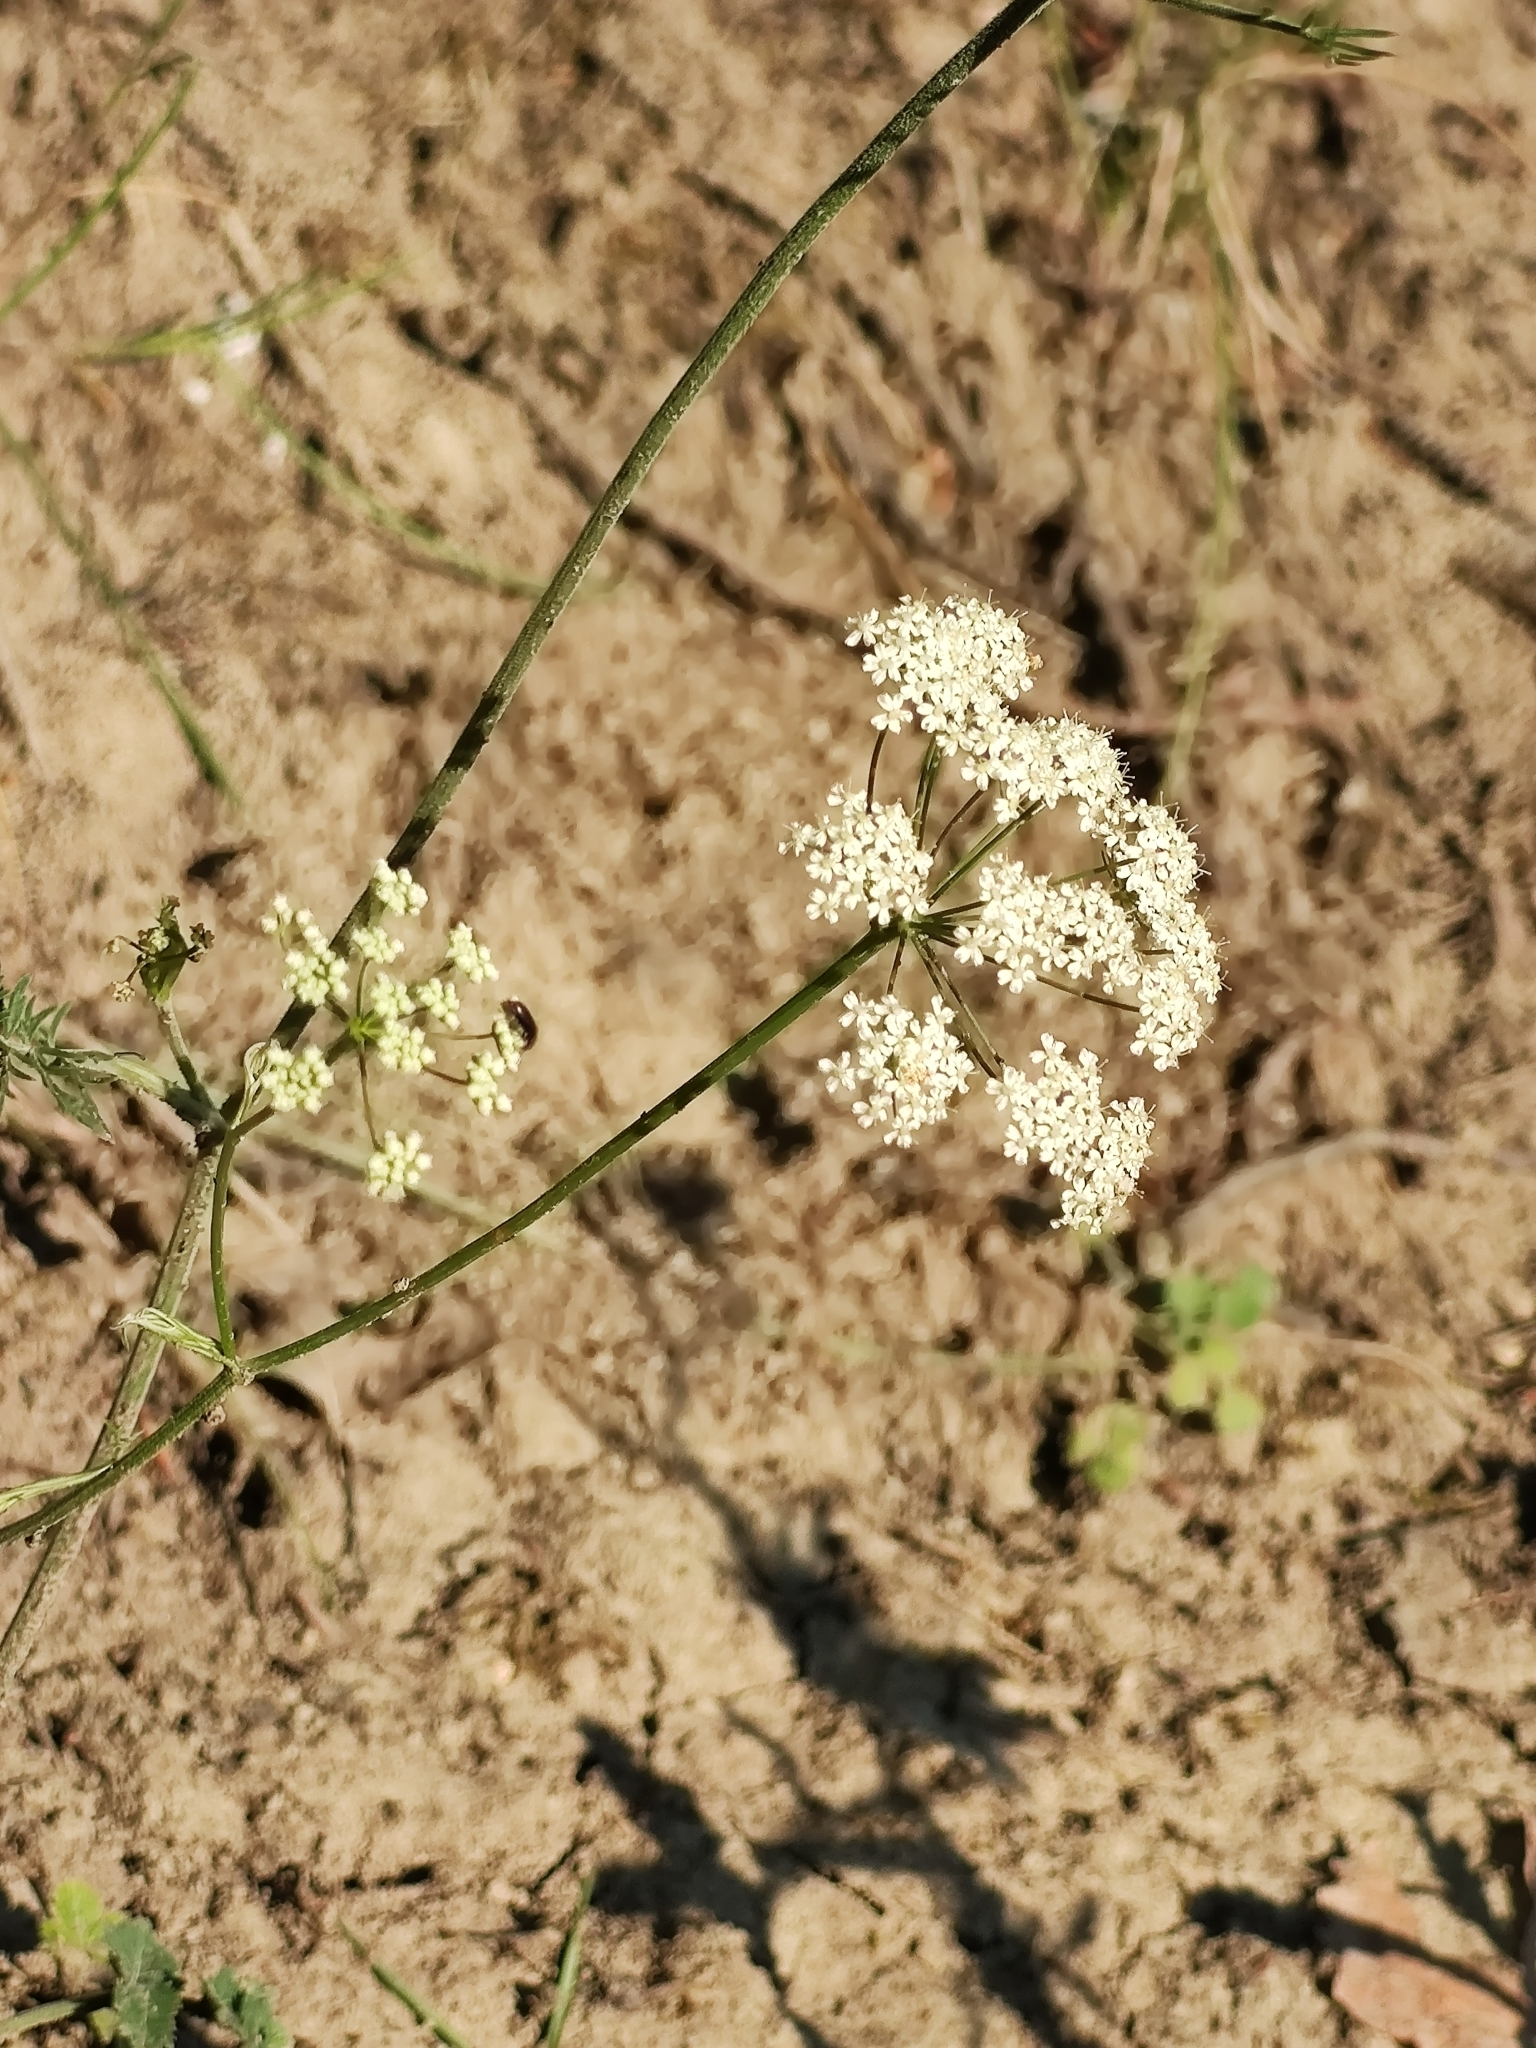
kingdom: Plantae
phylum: Tracheophyta
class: Magnoliopsida
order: Apiales
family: Apiaceae
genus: Pimpinella
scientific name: Pimpinella saxifraga
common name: Burnet-saxifrage
